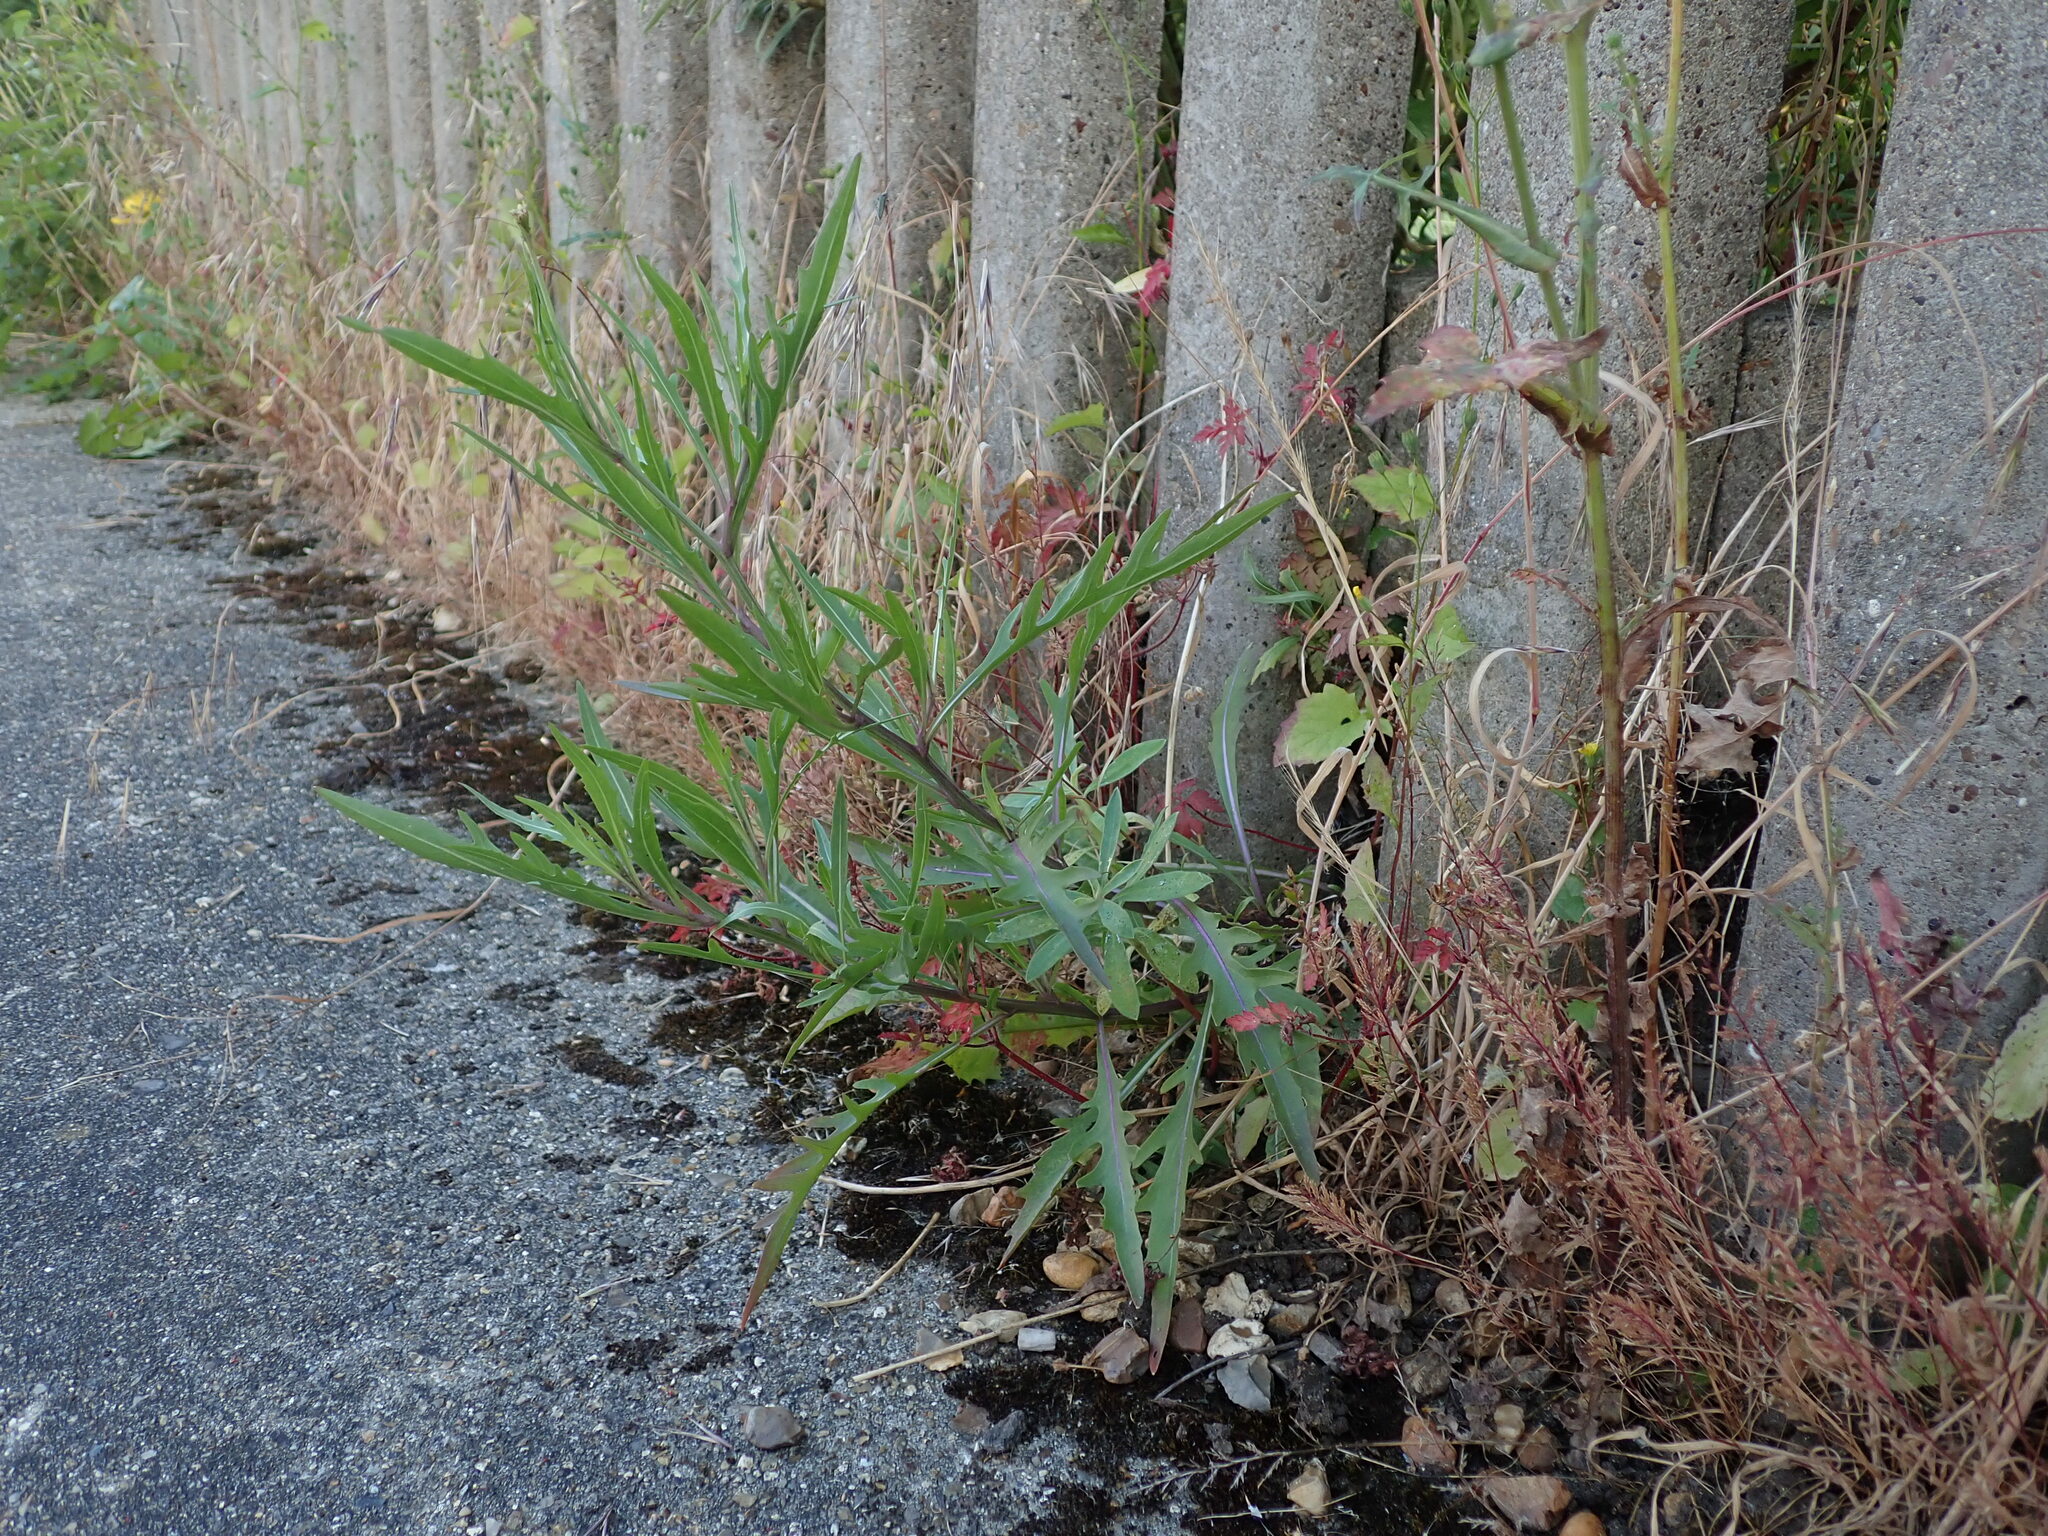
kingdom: Plantae
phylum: Tracheophyta
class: Magnoliopsida
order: Brassicales
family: Brassicaceae
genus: Diplotaxis
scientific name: Diplotaxis tenuifolia
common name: Perennial wall-rocket
